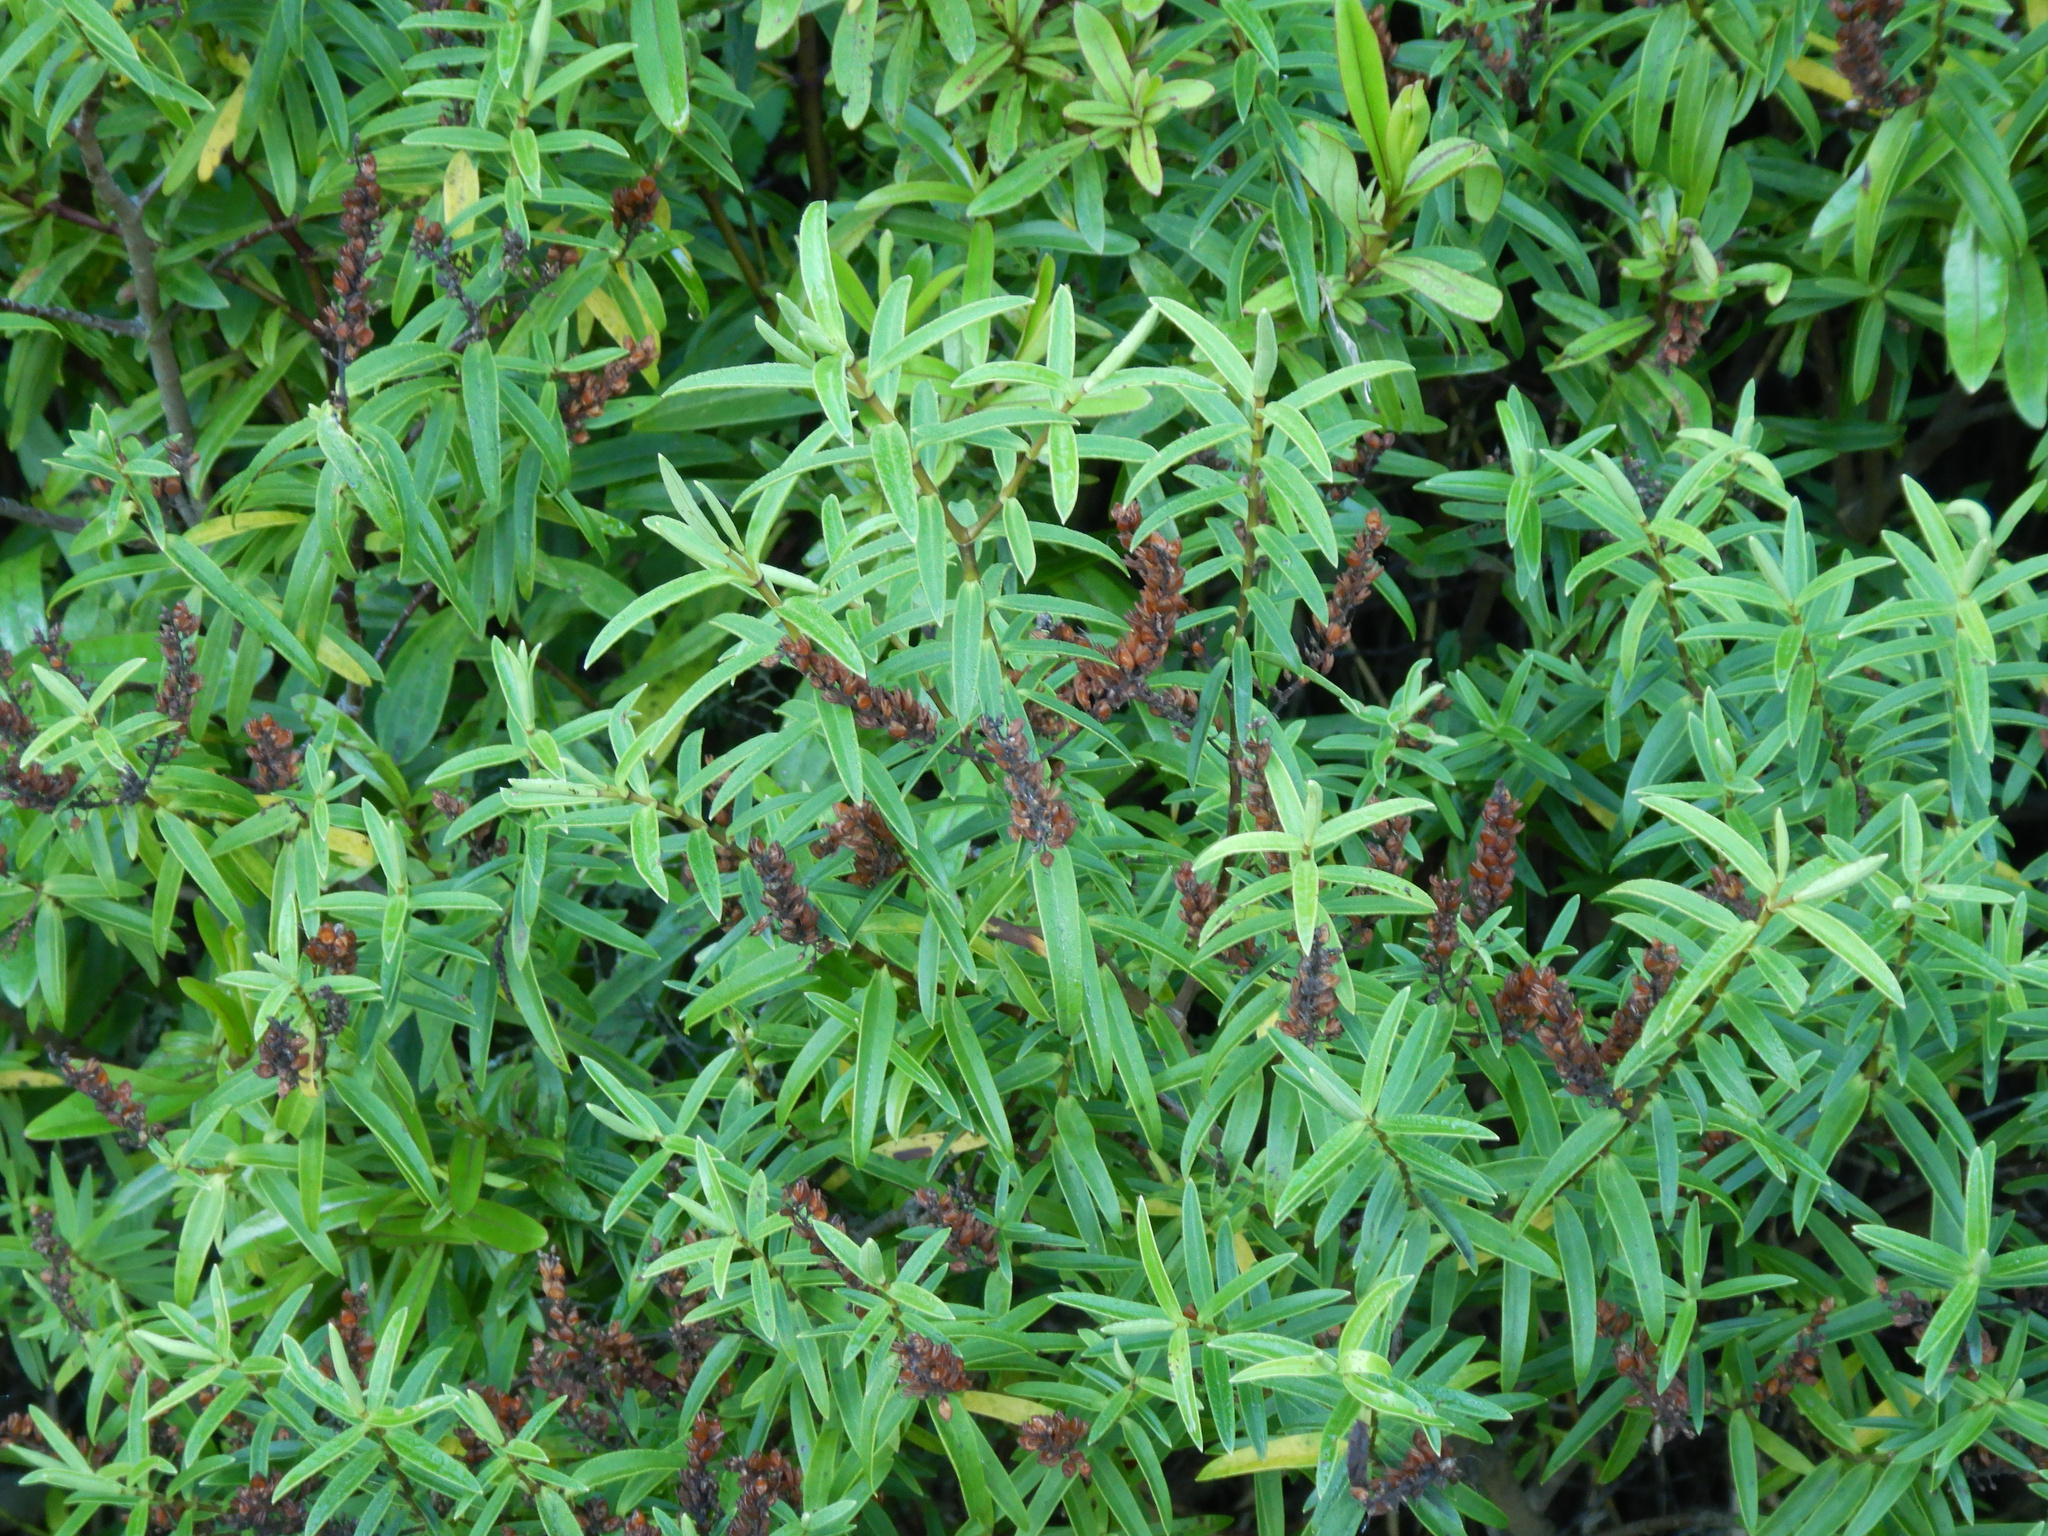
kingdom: Plantae
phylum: Tracheophyta
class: Magnoliopsida
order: Lamiales
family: Plantaginaceae
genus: Veronica
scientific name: Veronica strictissima
